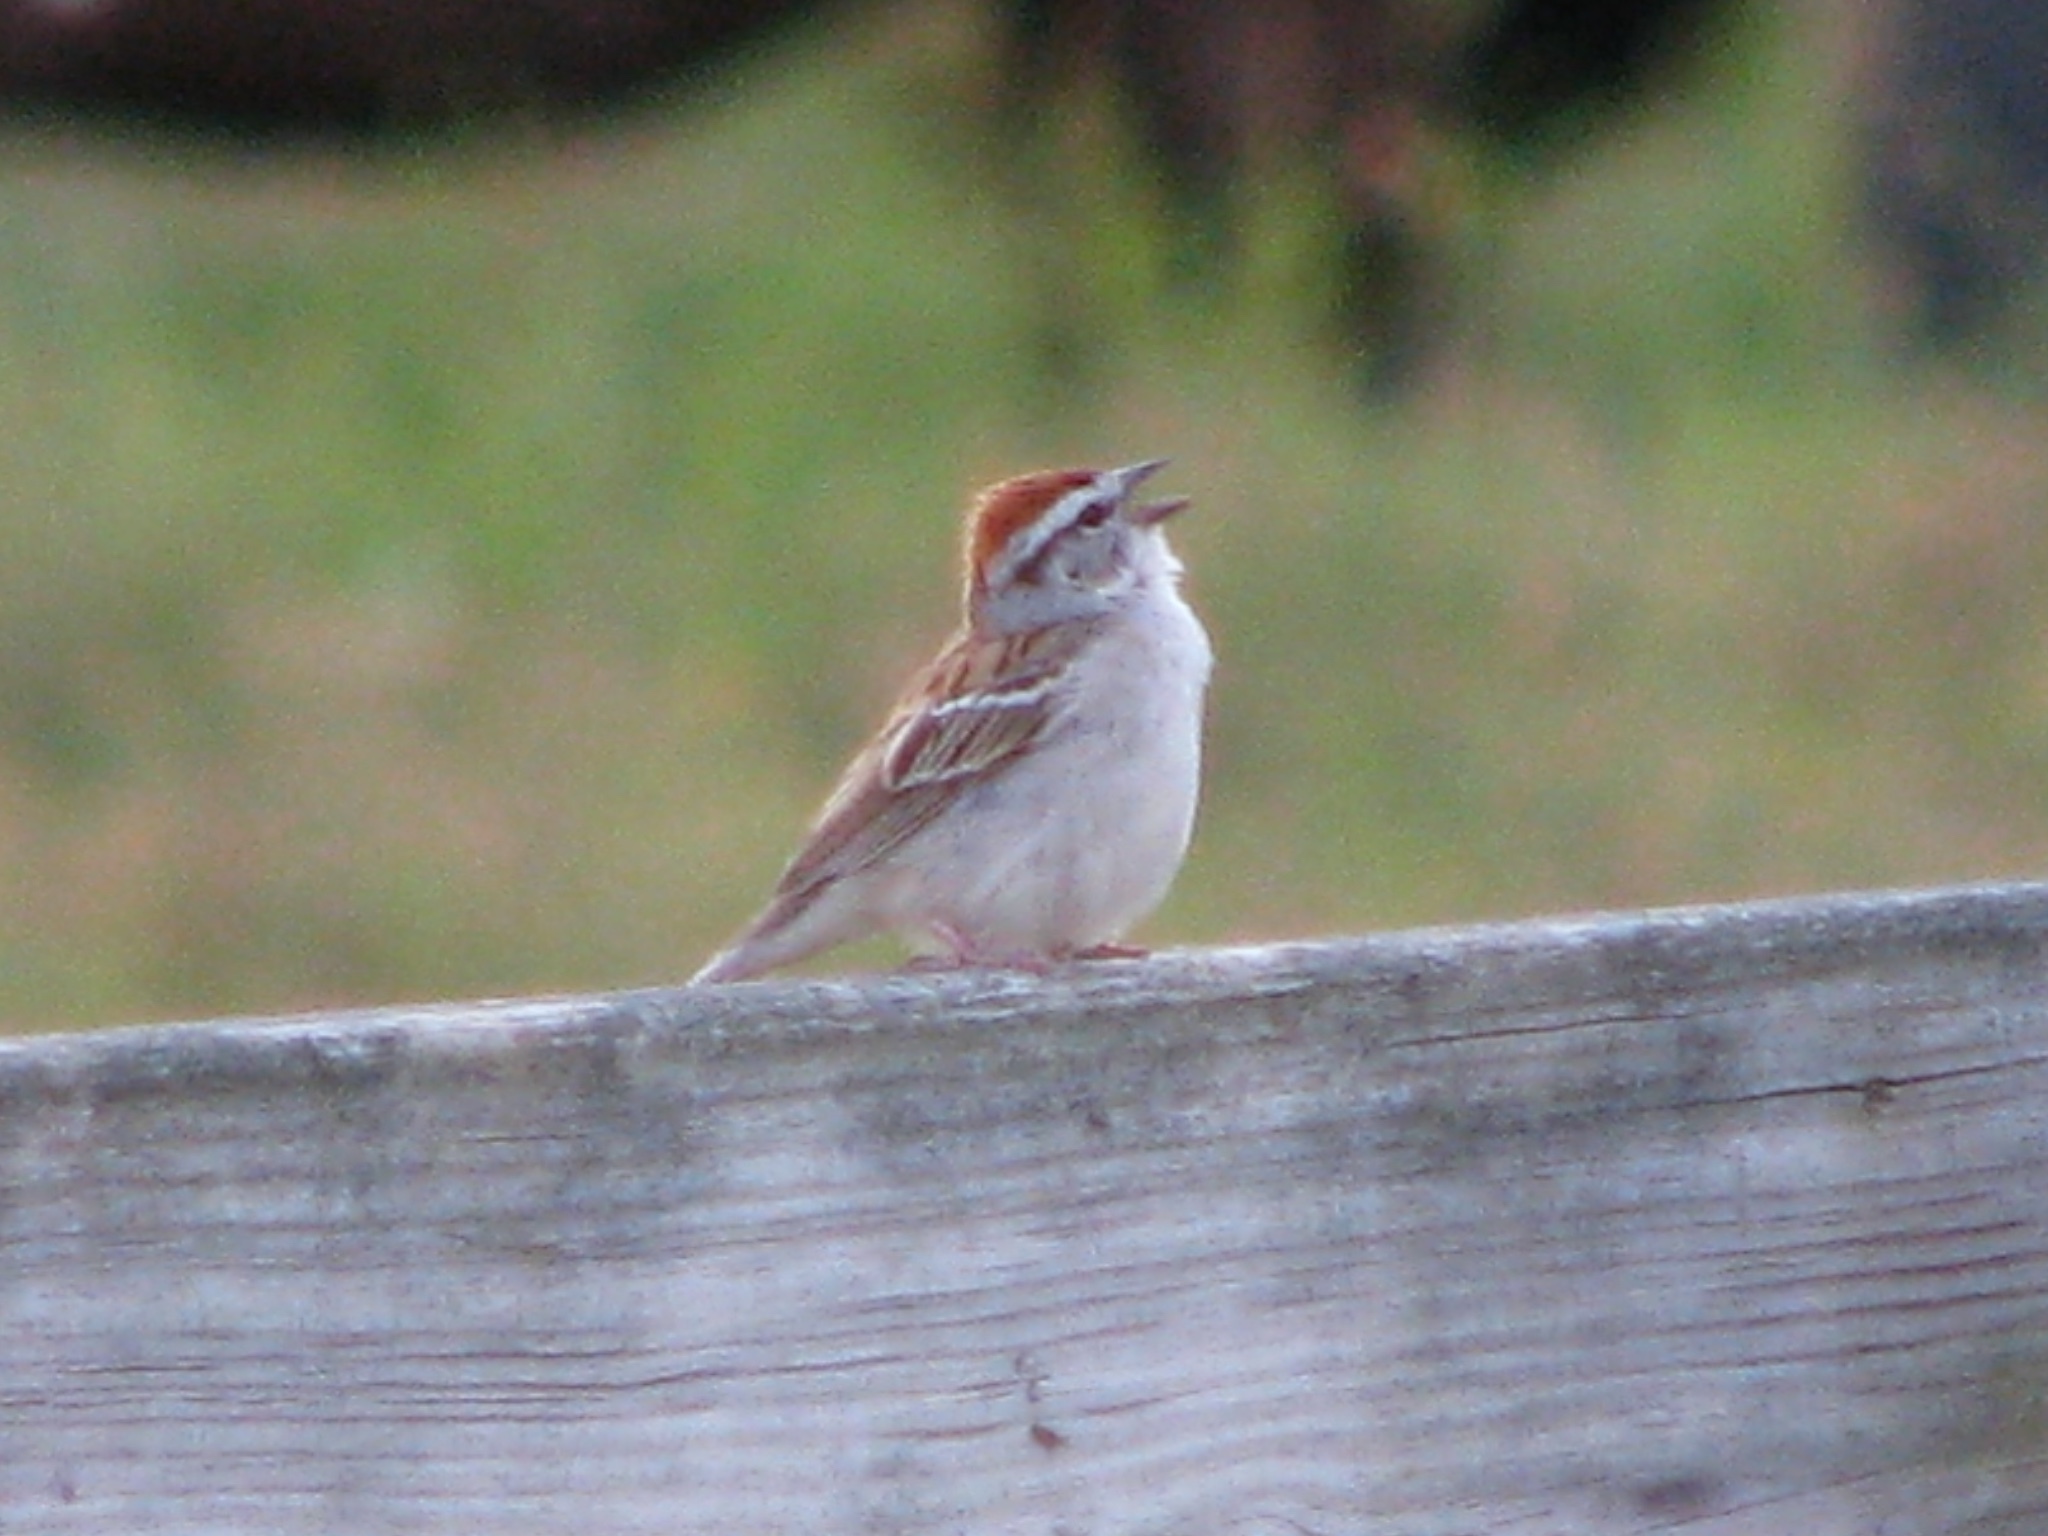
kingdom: Animalia
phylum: Chordata
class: Aves
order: Passeriformes
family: Passerellidae
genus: Spizella
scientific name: Spizella passerina
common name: Chipping sparrow
